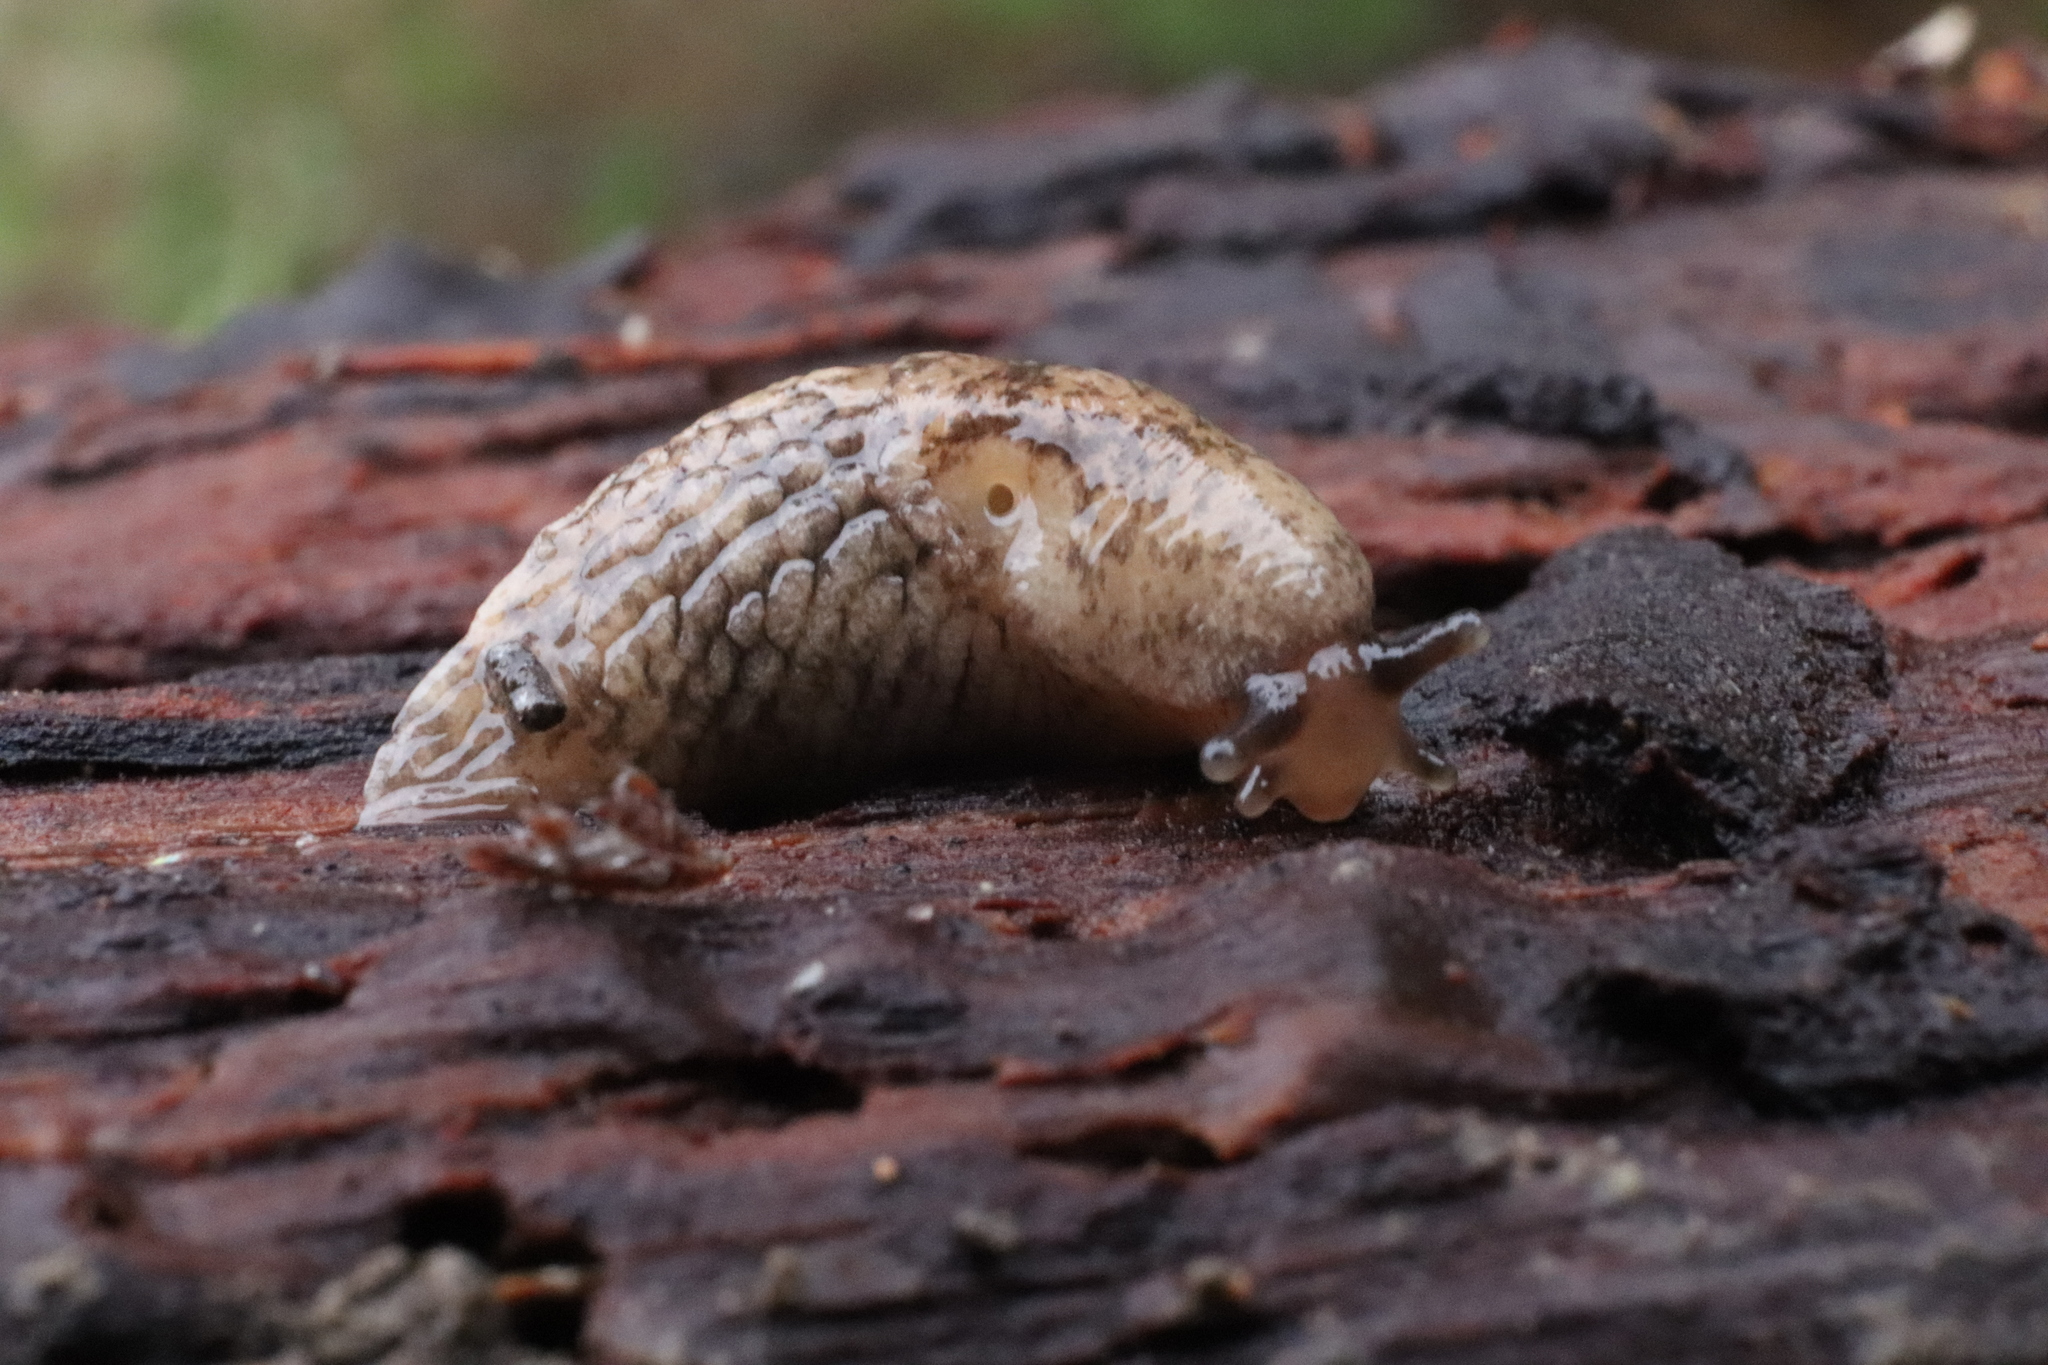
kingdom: Animalia
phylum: Mollusca
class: Gastropoda
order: Stylommatophora
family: Agriolimacidae
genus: Deroceras
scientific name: Deroceras reticulatum
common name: Gray field slug
